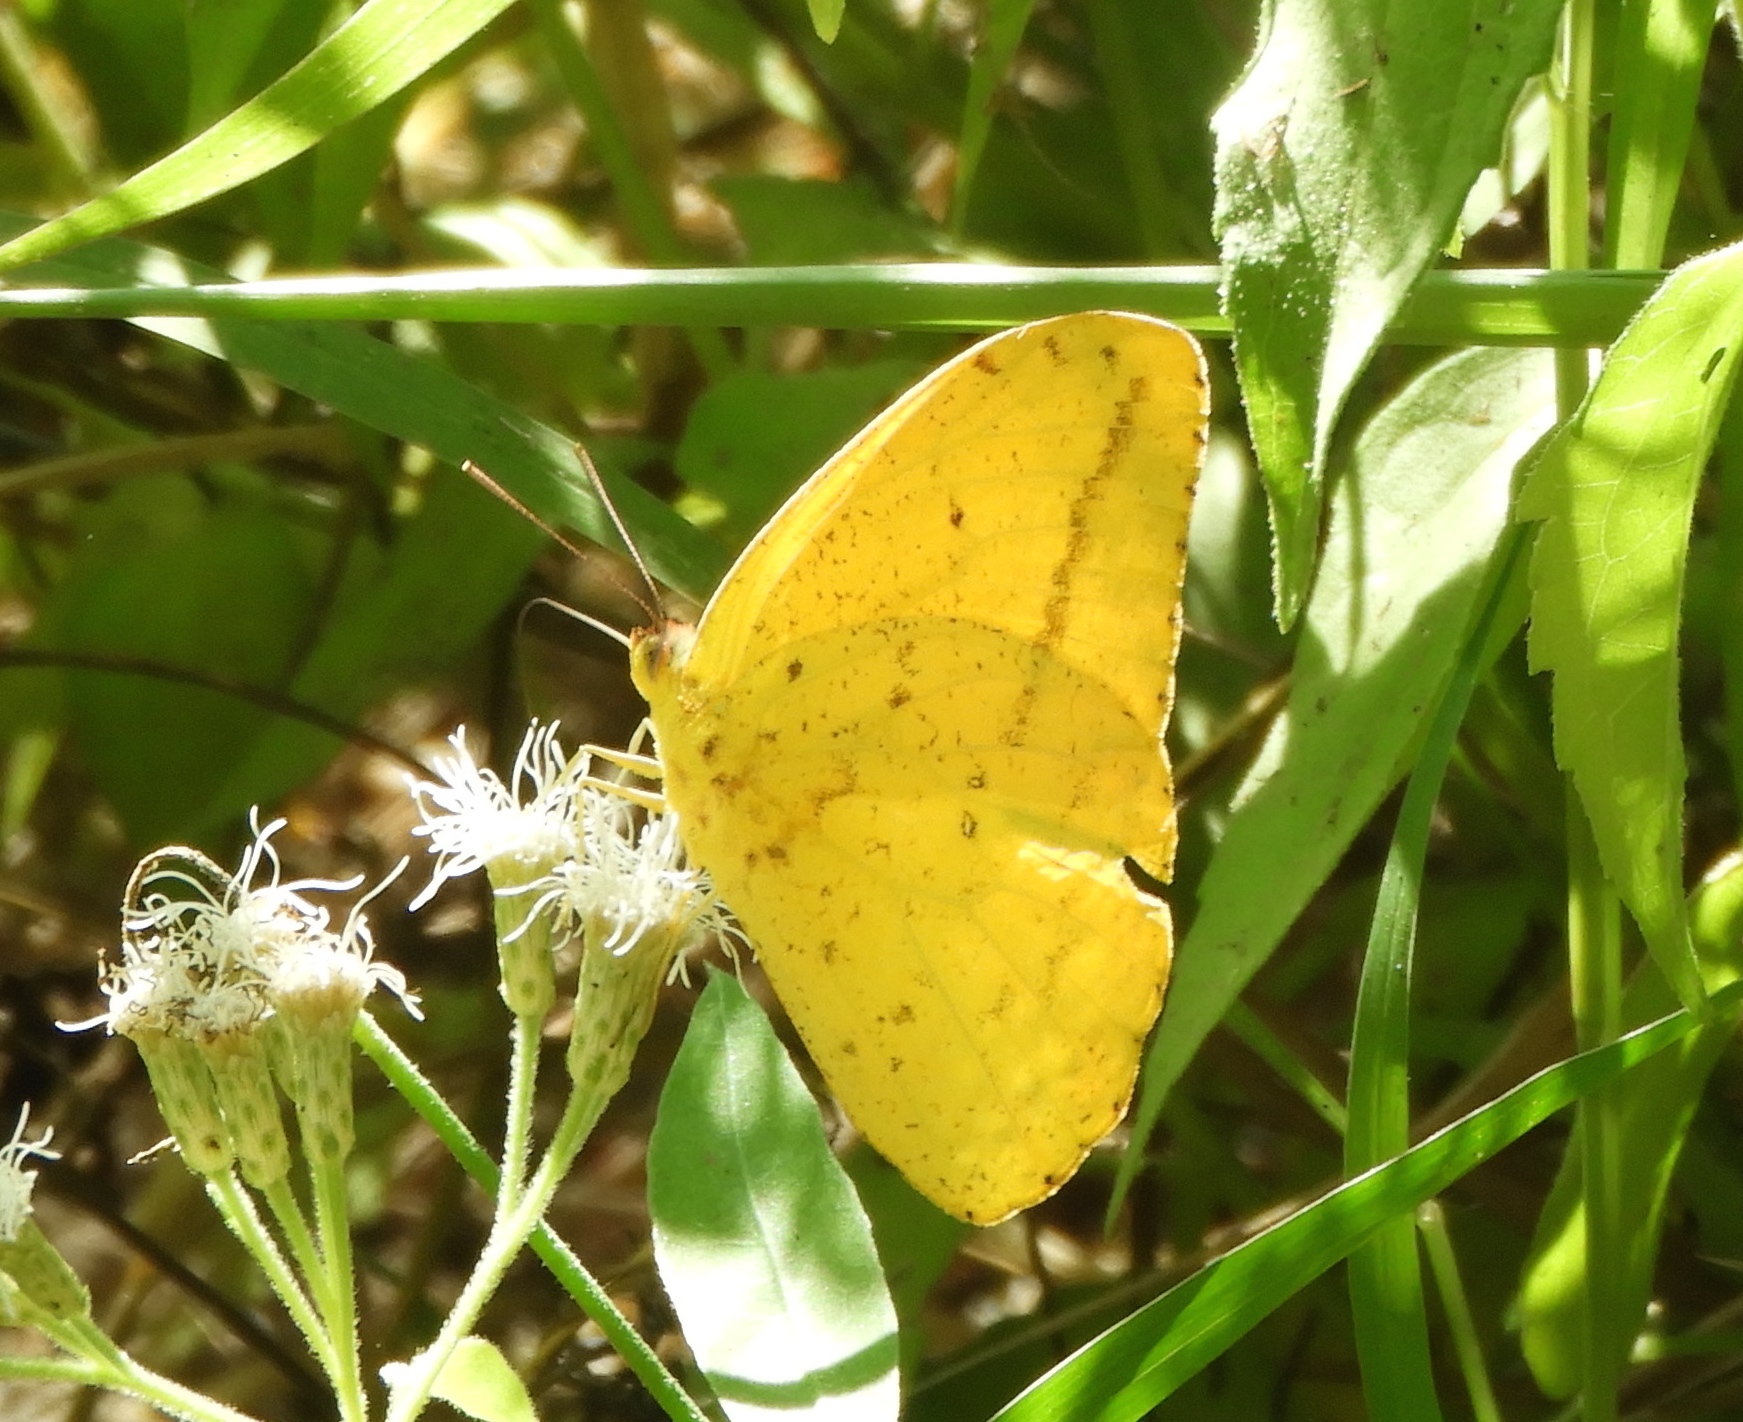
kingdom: Animalia
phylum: Arthropoda
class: Insecta
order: Lepidoptera
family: Pieridae
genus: Phoebis
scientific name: Phoebis agarithe
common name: Large orange sulphur
